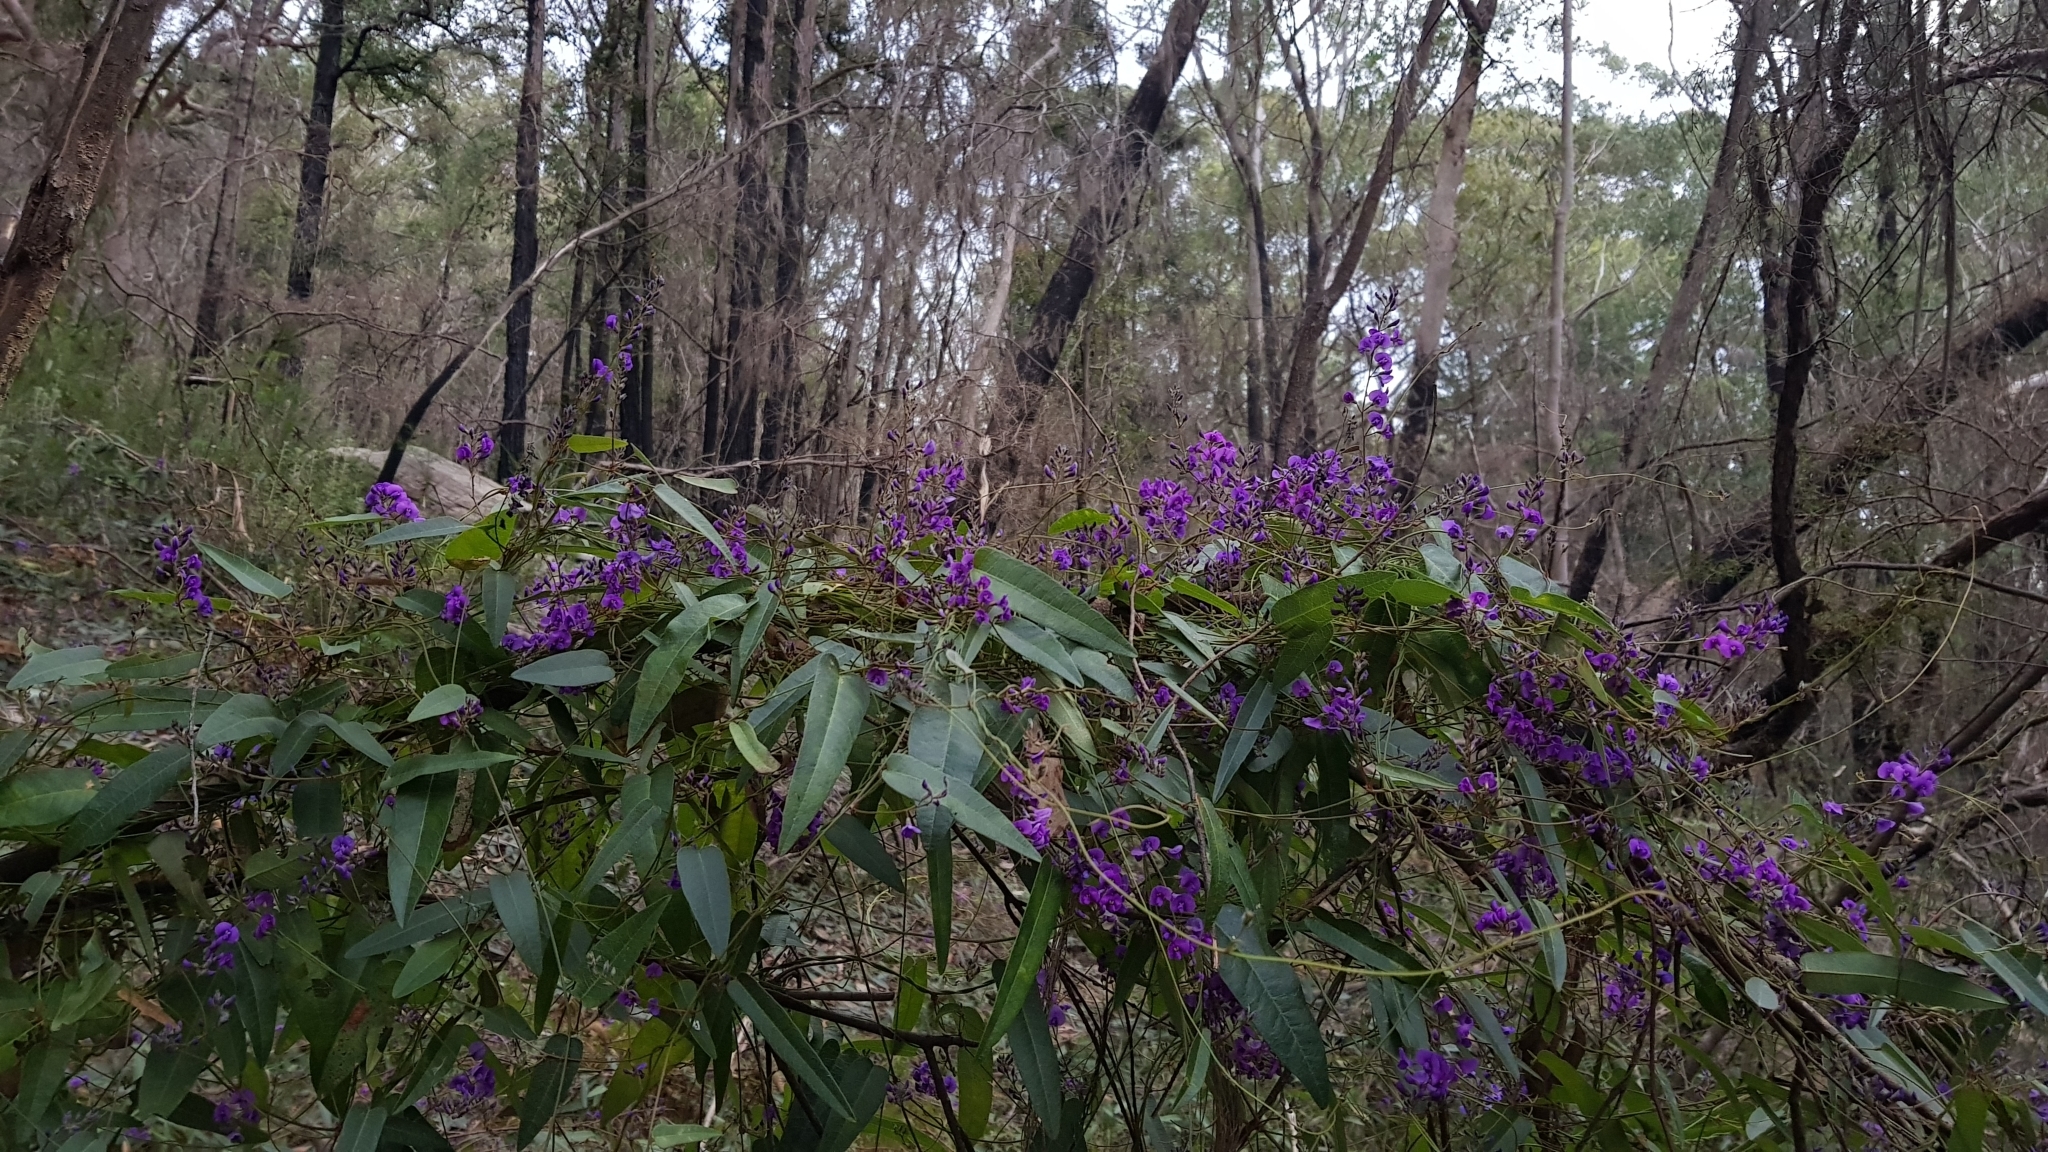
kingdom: Plantae
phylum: Tracheophyta
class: Magnoliopsida
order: Fabales
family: Fabaceae
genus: Hardenbergia
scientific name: Hardenbergia violacea
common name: Coral-pea
